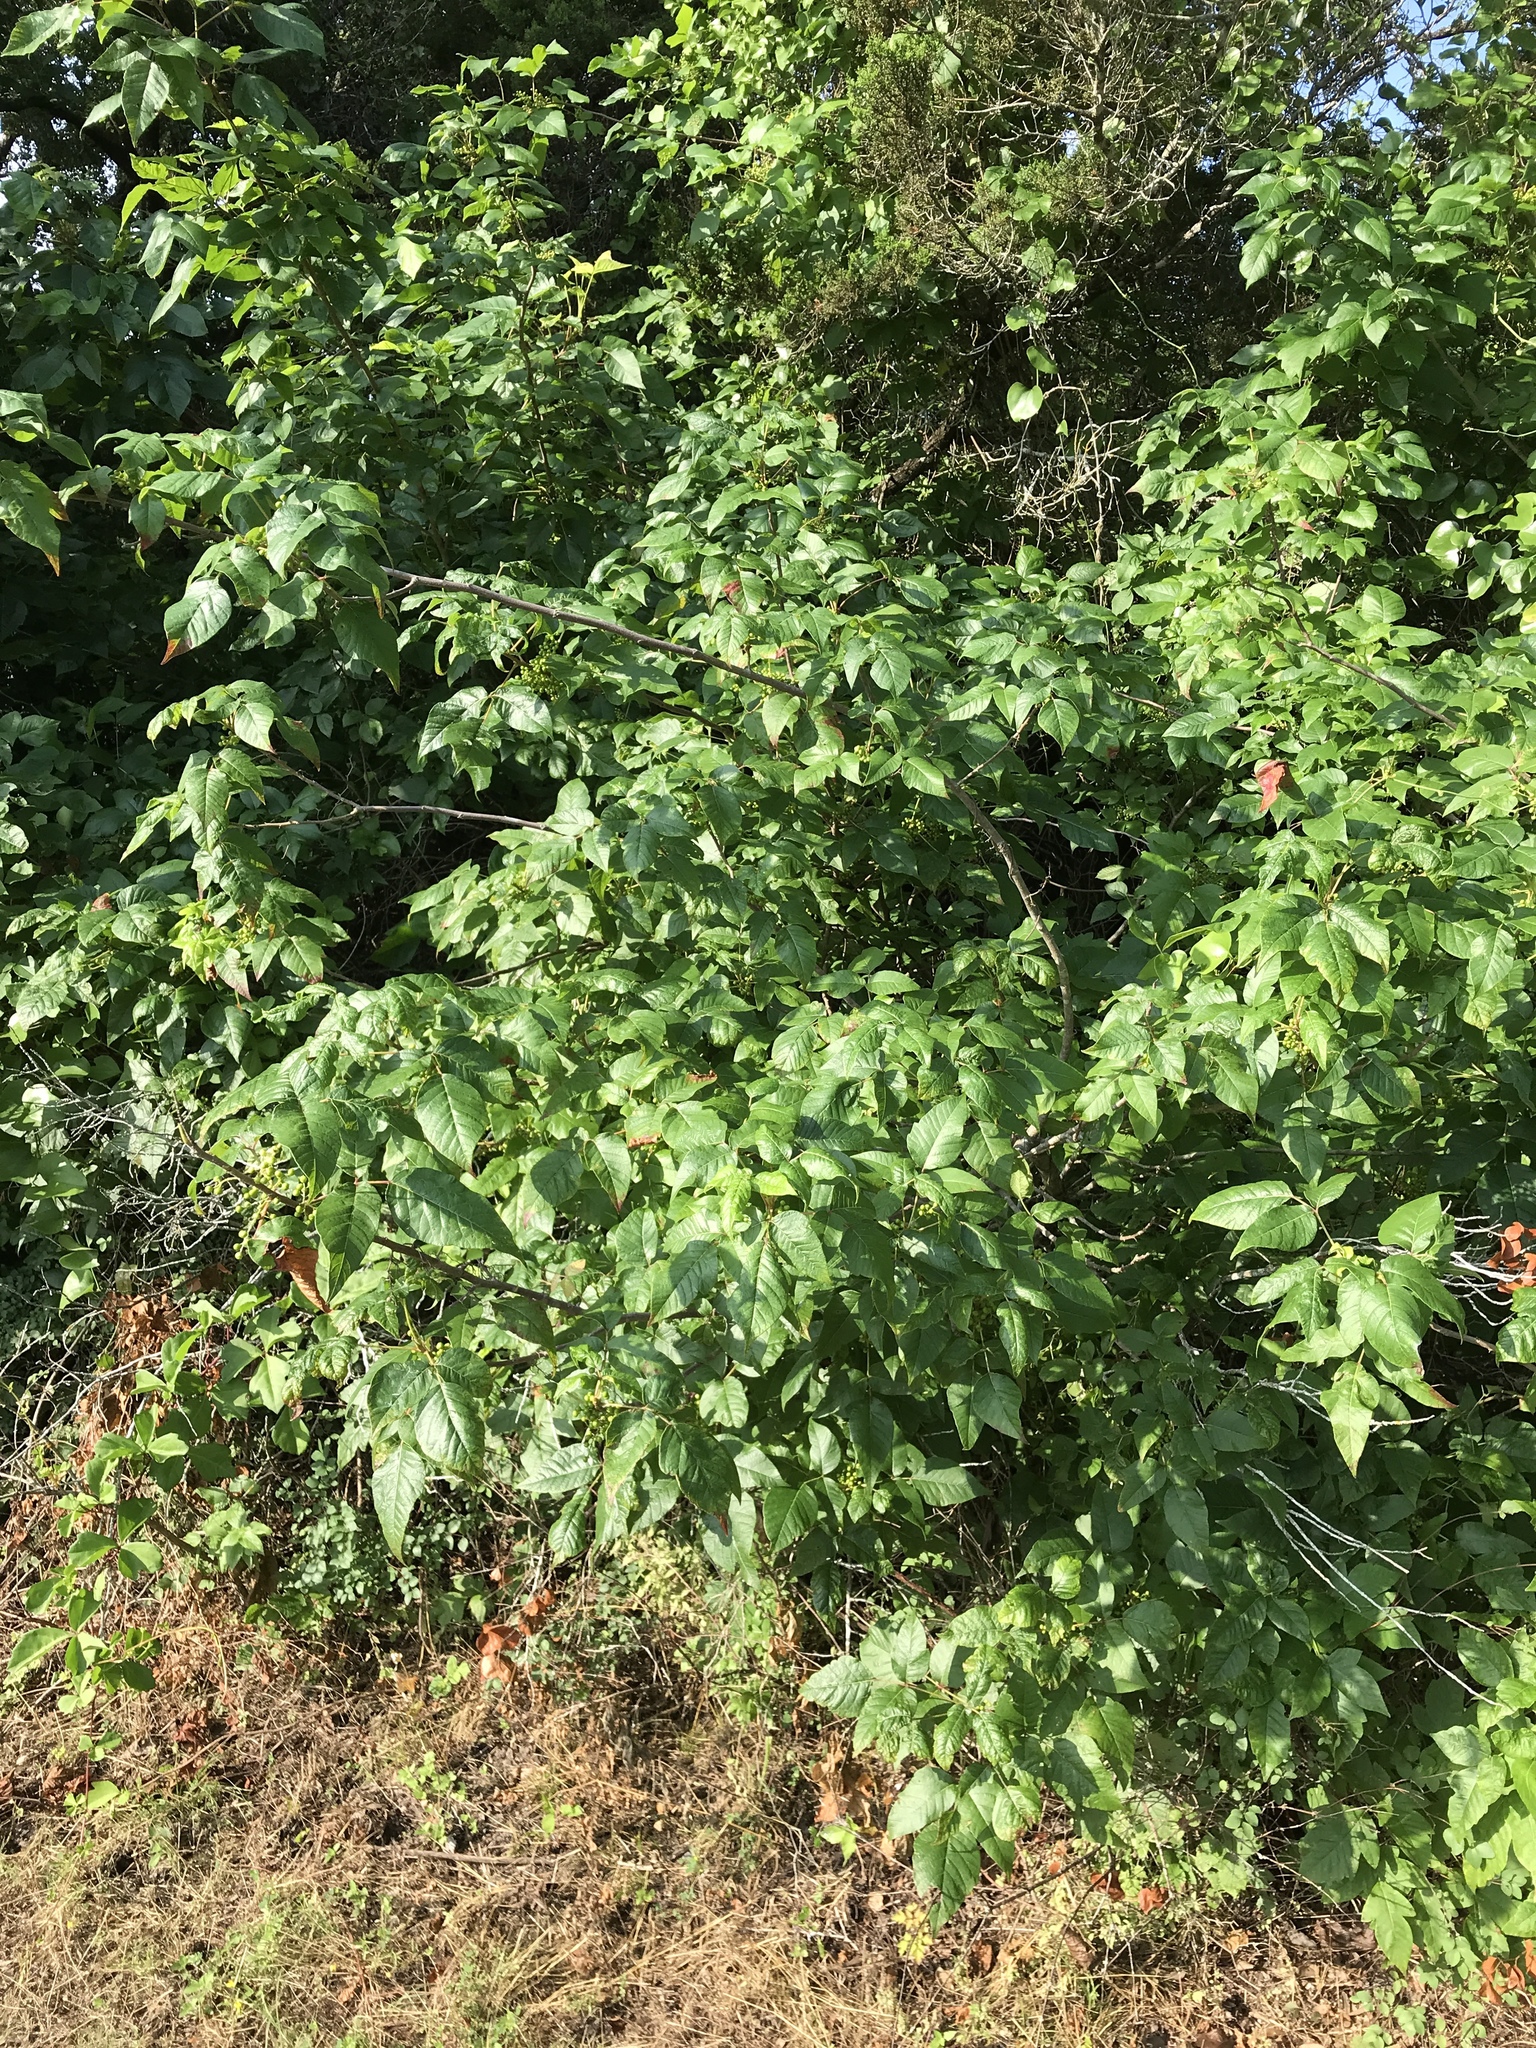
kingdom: Plantae
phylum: Tracheophyta
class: Magnoliopsida
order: Sapindales
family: Anacardiaceae
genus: Toxicodendron
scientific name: Toxicodendron radicans
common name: Poison ivy
